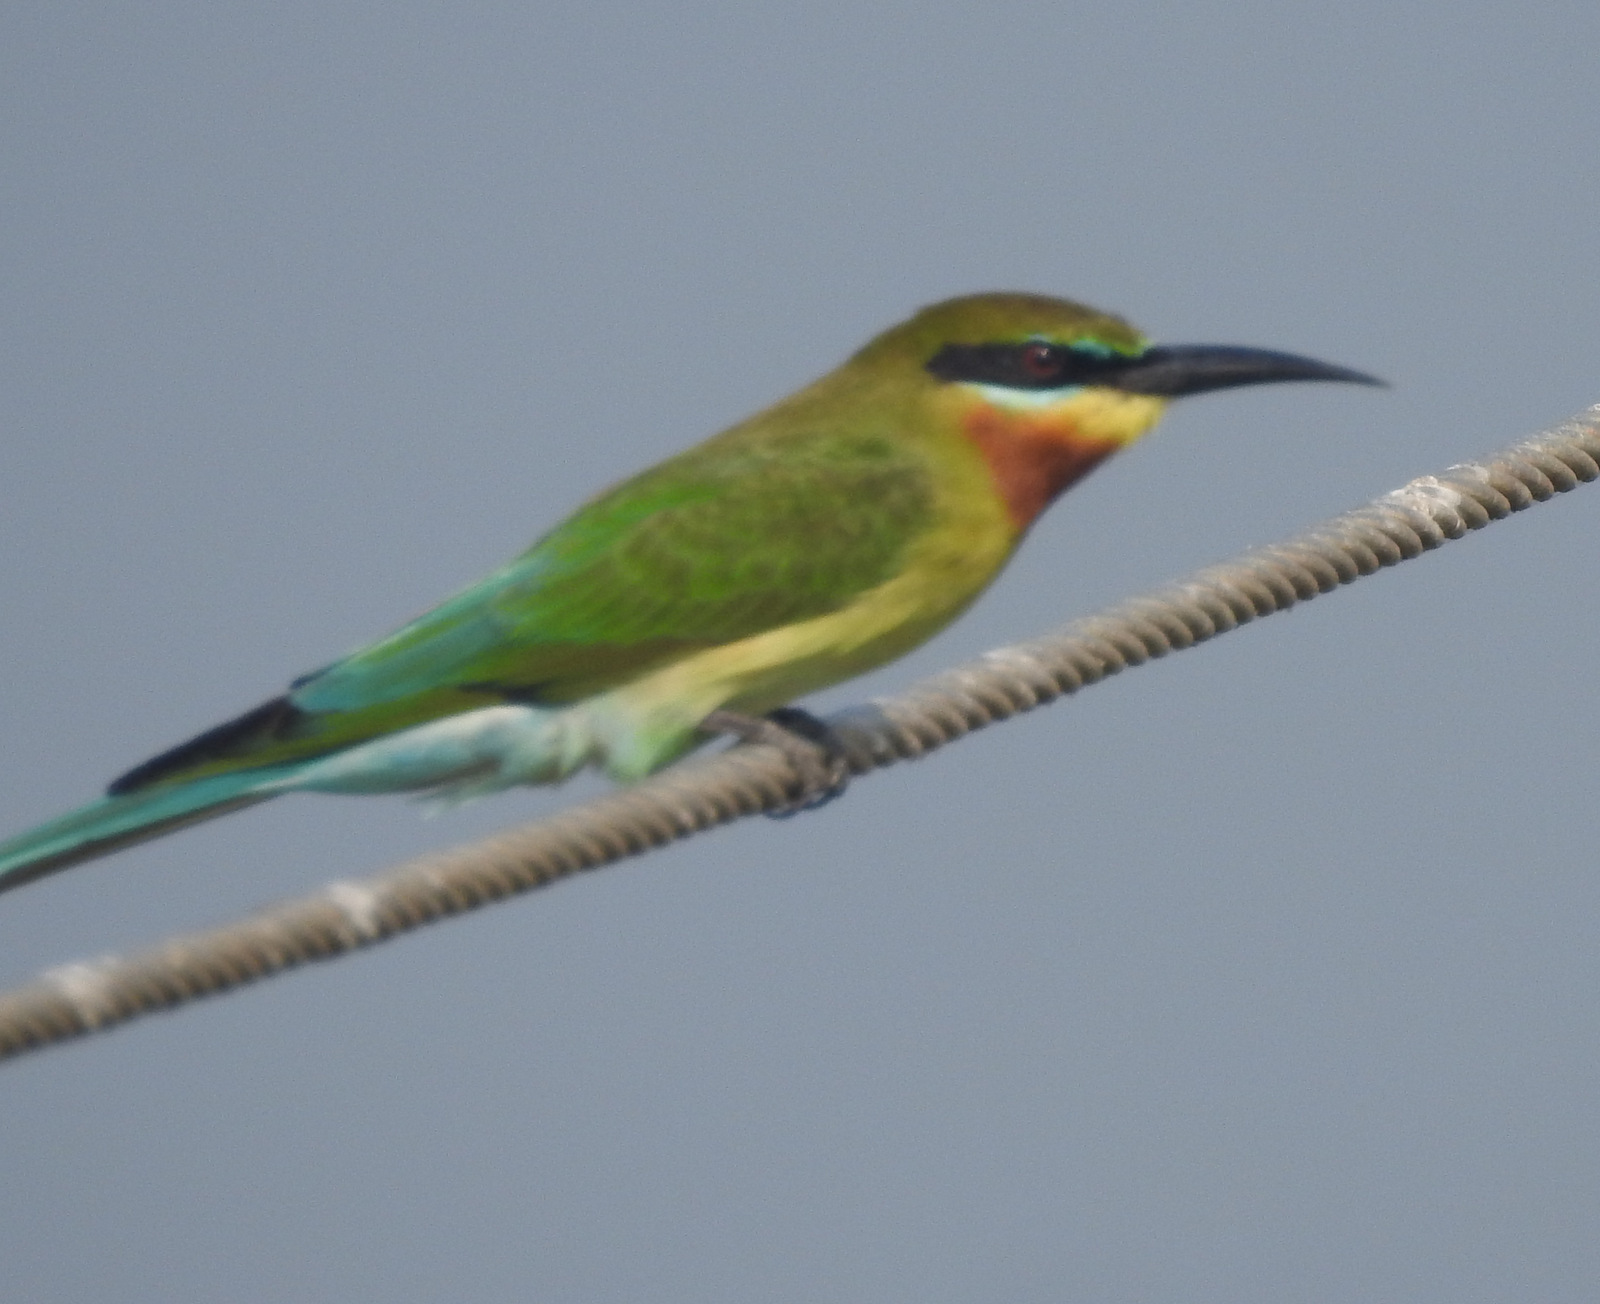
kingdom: Animalia
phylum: Chordata
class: Aves
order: Coraciiformes
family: Meropidae
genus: Merops
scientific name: Merops philippinus
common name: Blue-tailed bee-eater
